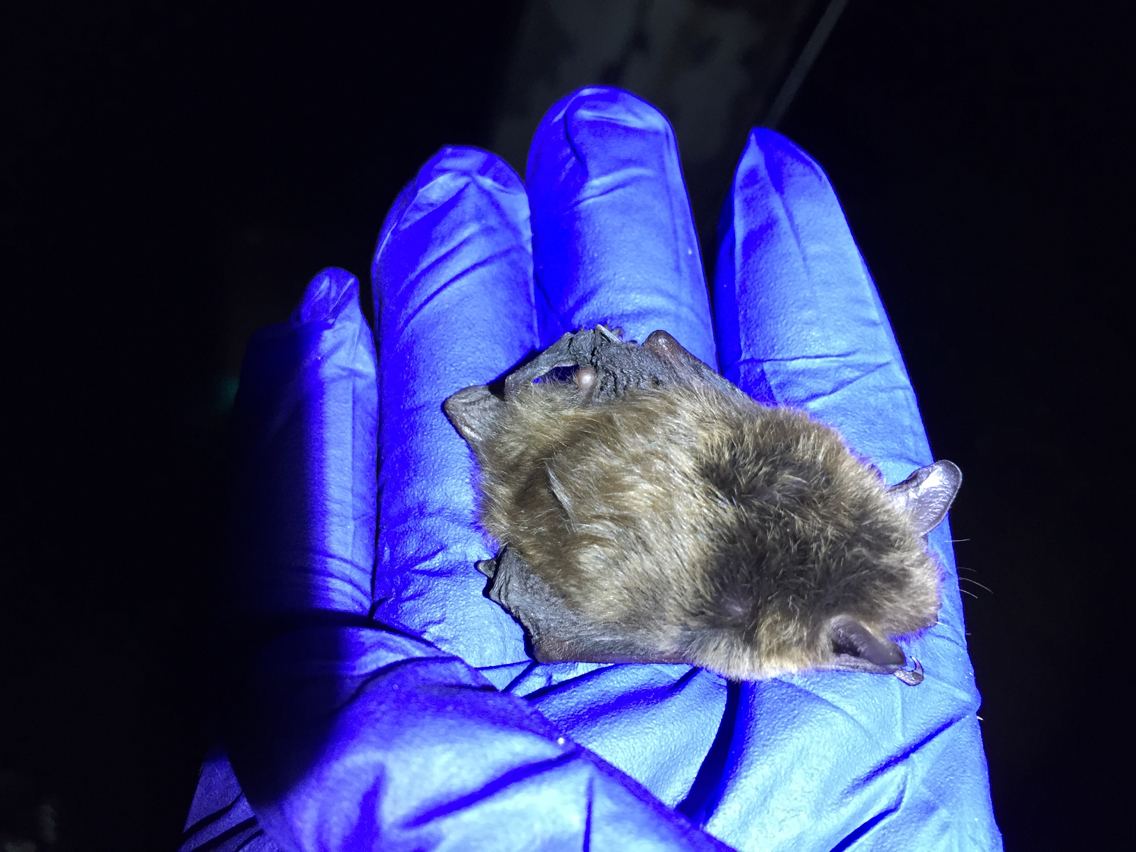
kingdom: Animalia
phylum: Chordata
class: Mammalia
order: Chiroptera
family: Vespertilionidae
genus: Myotis
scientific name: Myotis lucifugus
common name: Little brown bat
